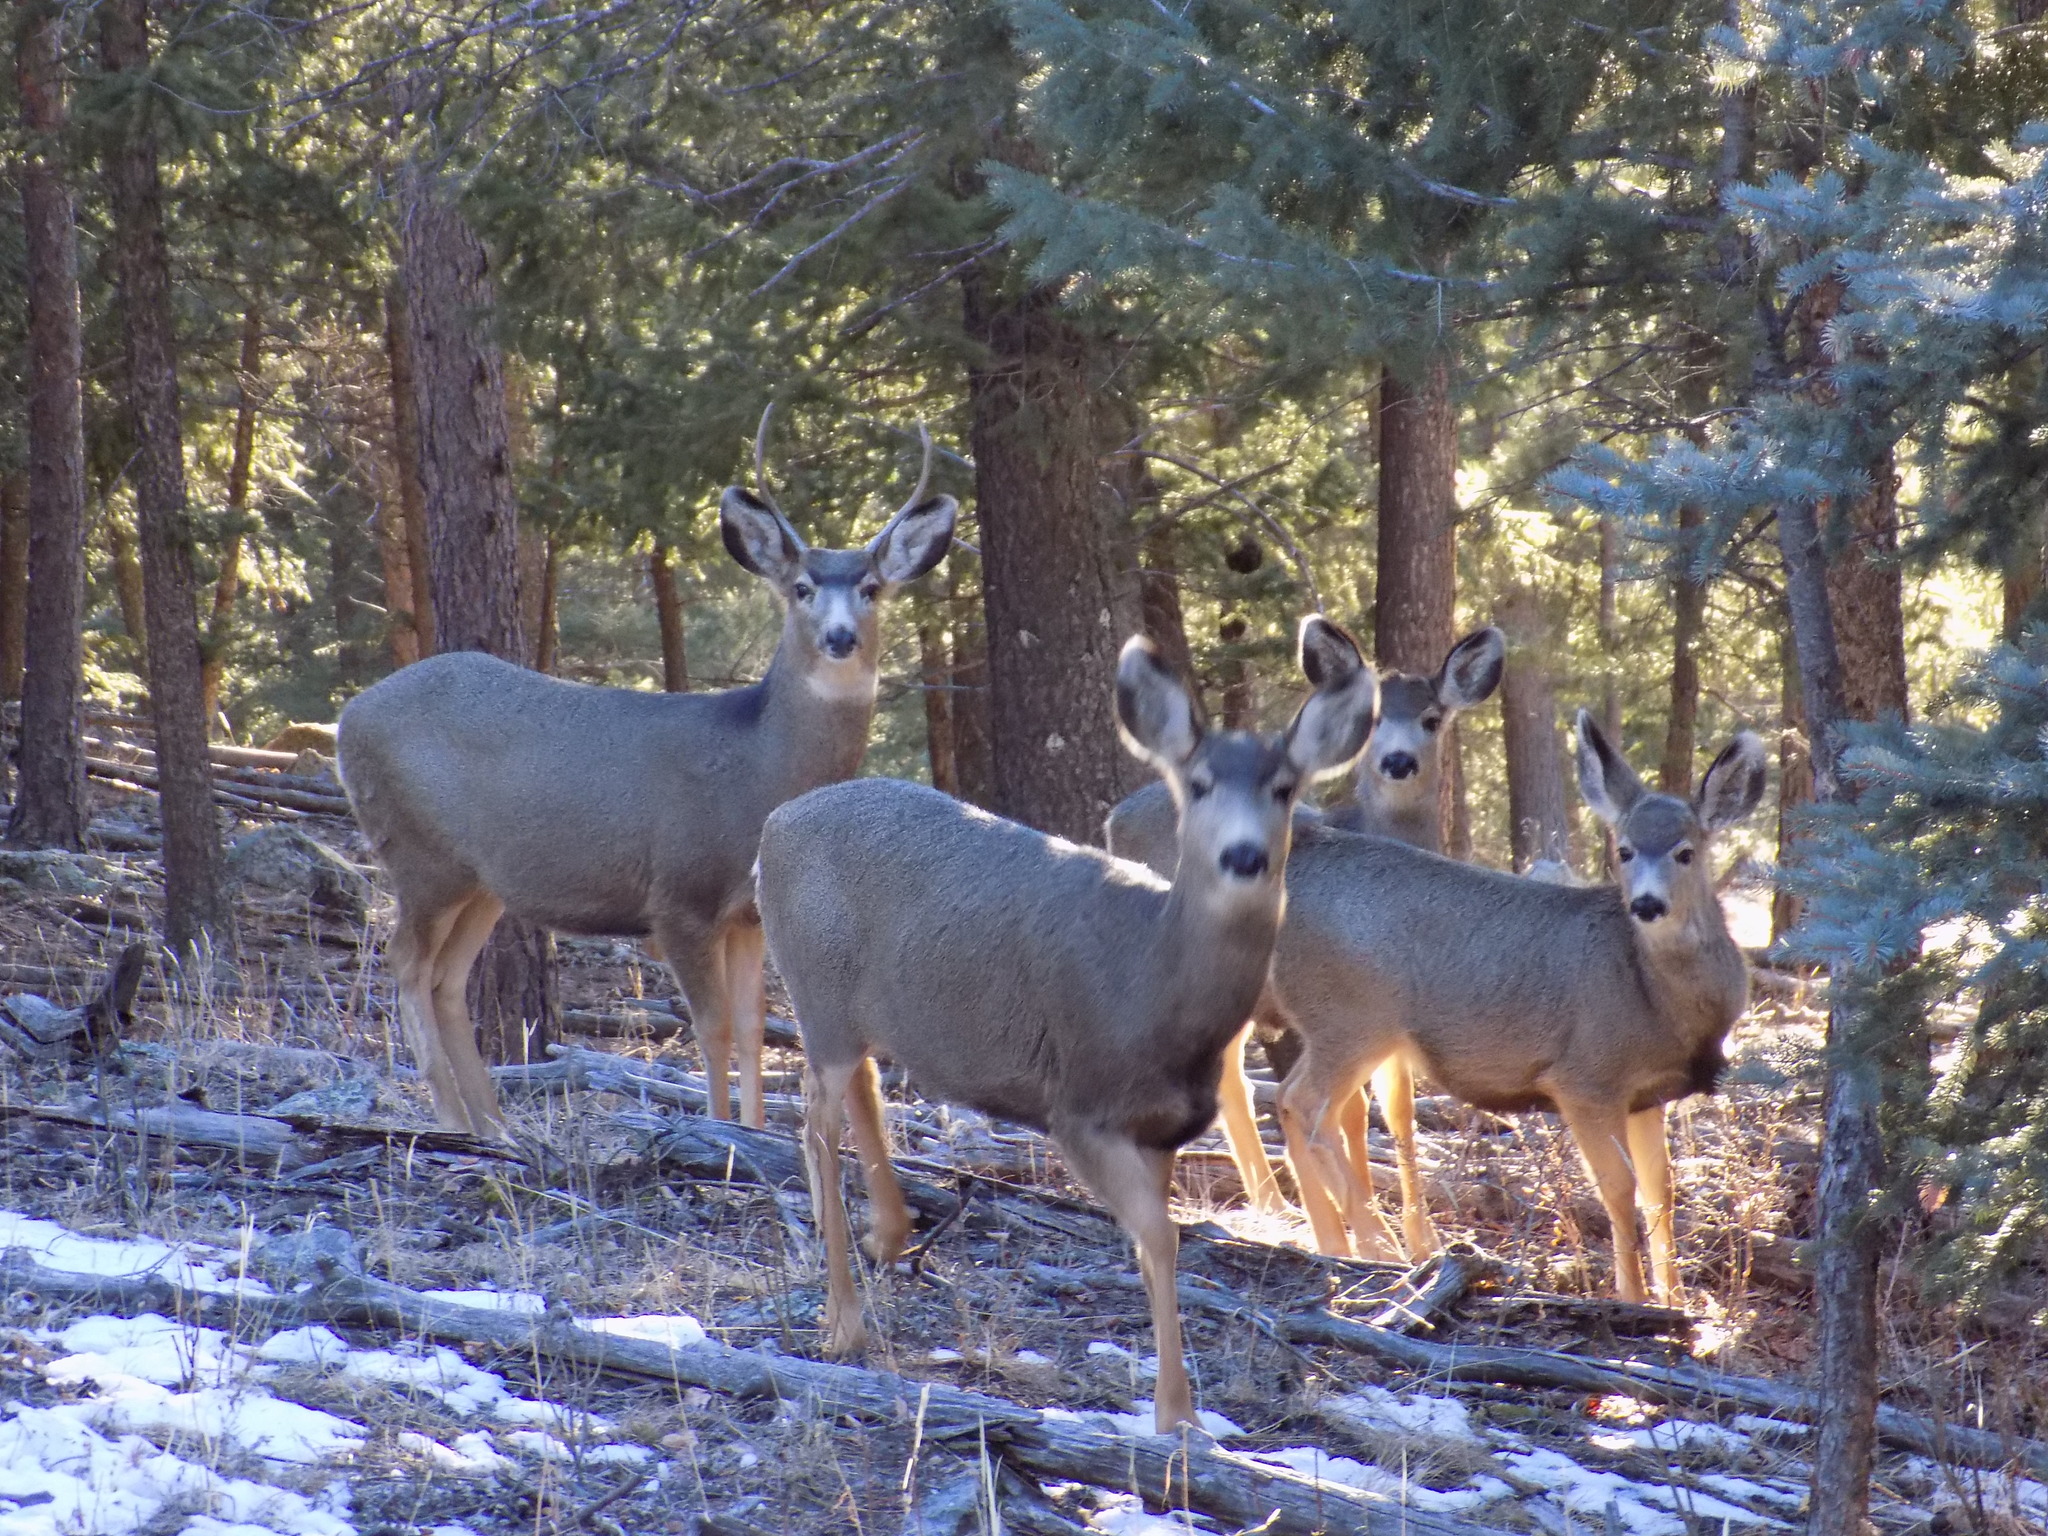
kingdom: Animalia
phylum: Chordata
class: Mammalia
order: Artiodactyla
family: Cervidae
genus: Odocoileus
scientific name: Odocoileus hemionus
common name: Mule deer
